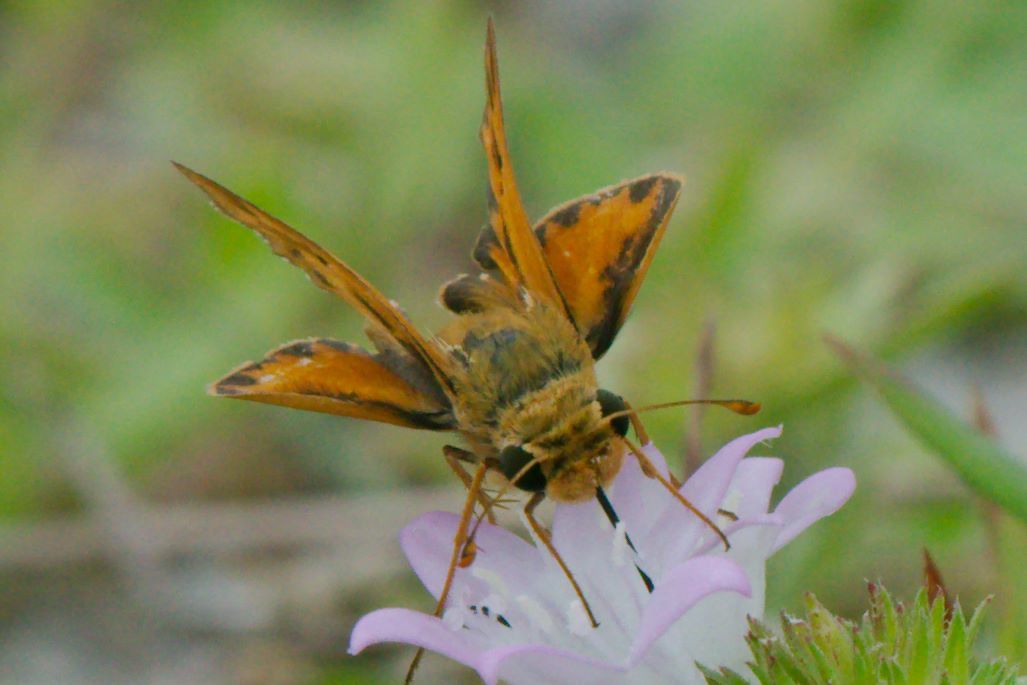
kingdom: Animalia
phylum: Arthropoda
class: Insecta
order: Lepidoptera
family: Hesperiidae
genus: Hylephila
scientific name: Hylephila phyleus
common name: Fiery skipper
